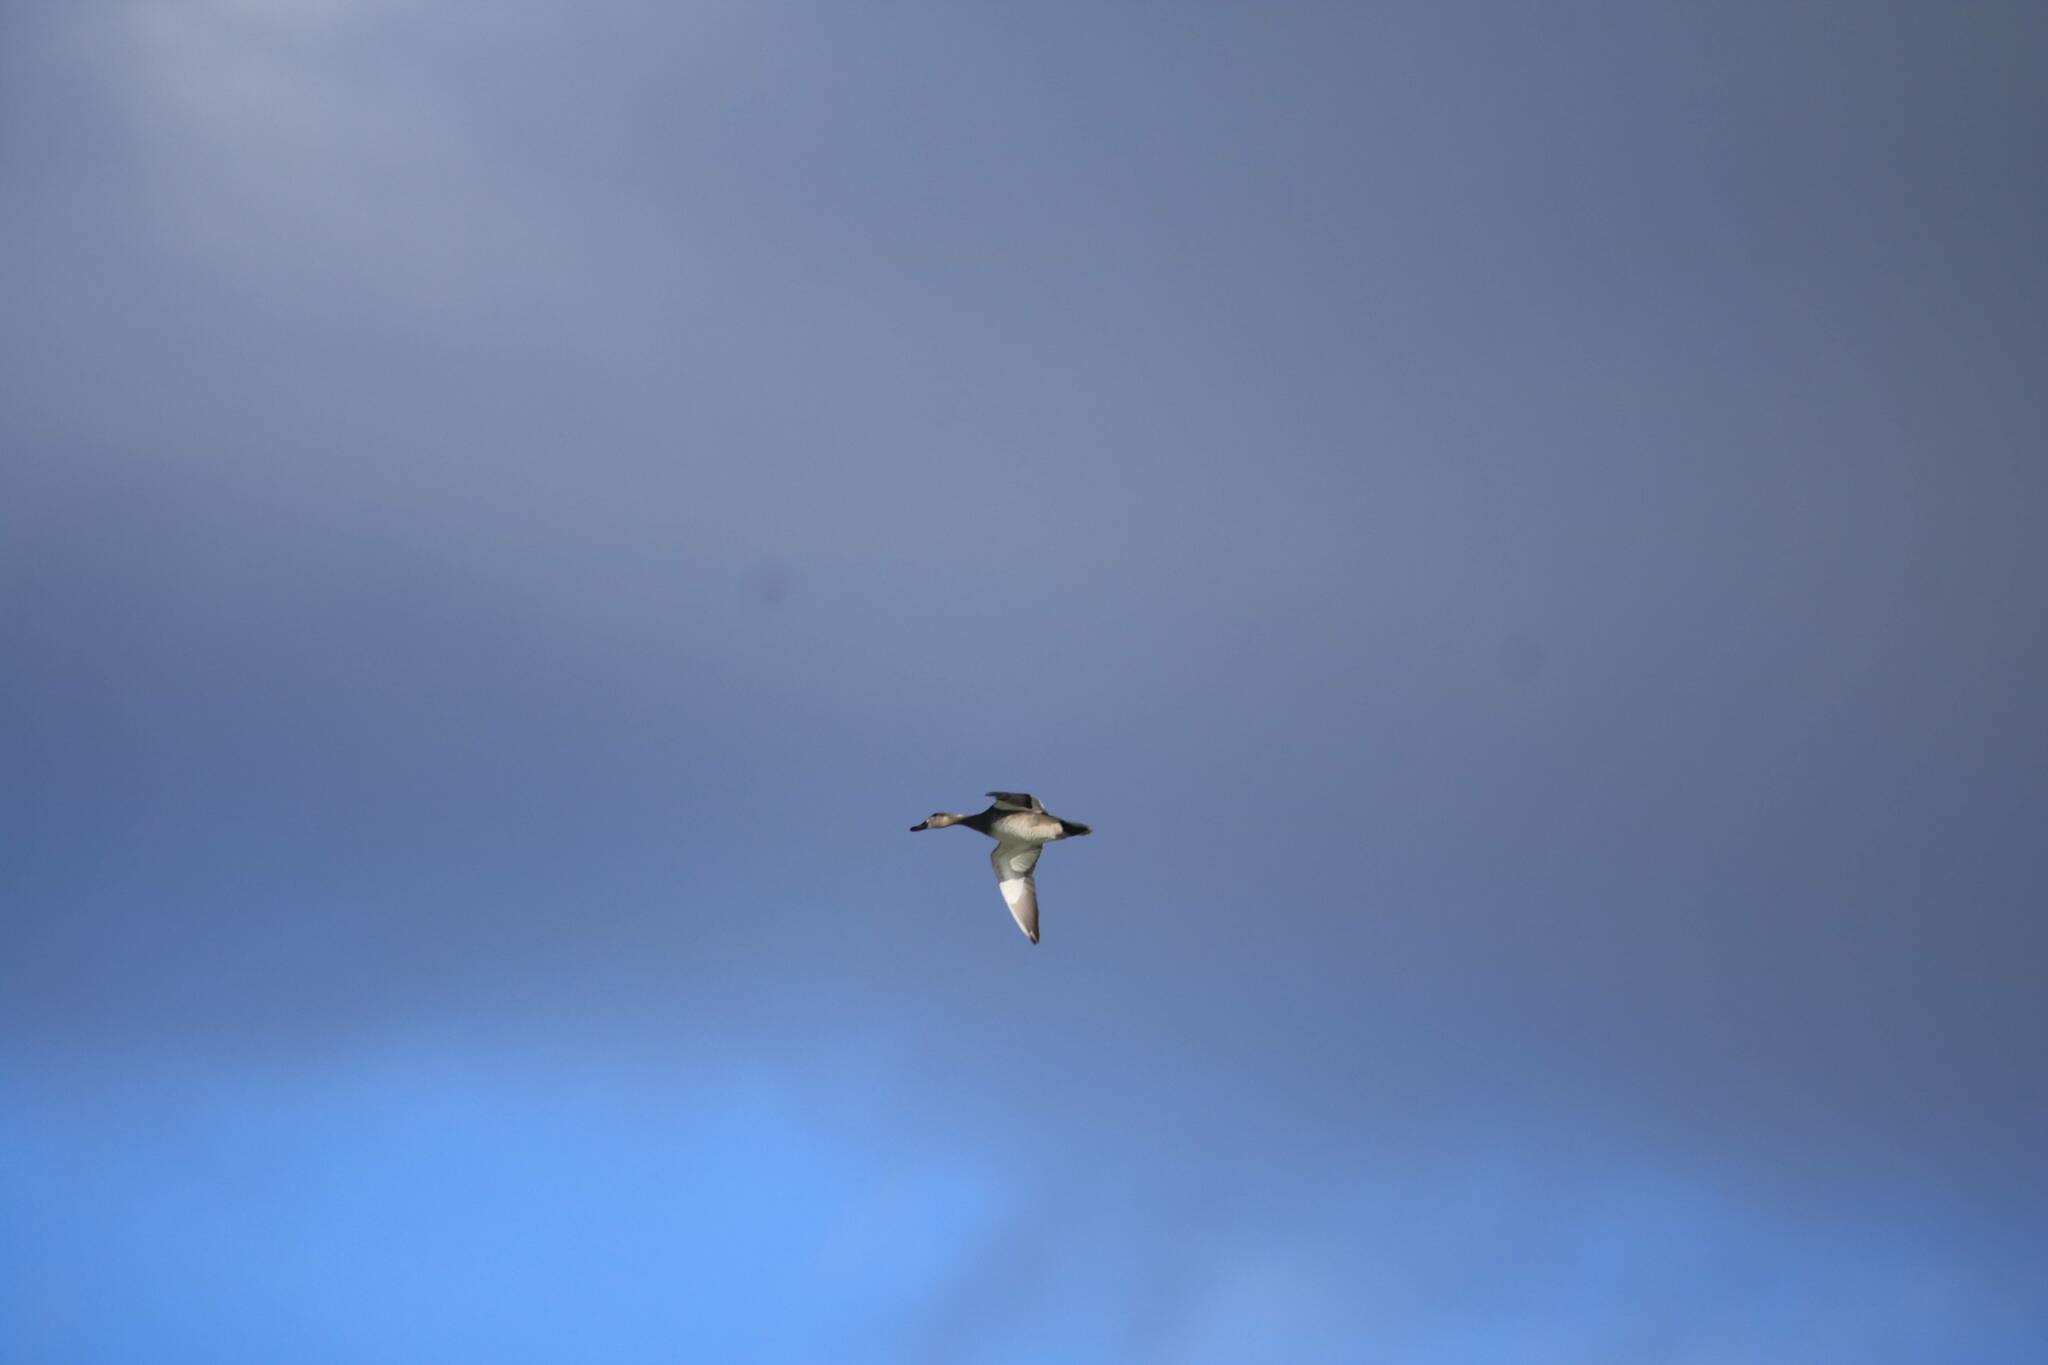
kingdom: Animalia
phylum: Chordata
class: Aves
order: Anseriformes
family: Anatidae
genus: Mareca
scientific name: Mareca penelope
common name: Eurasian wigeon
